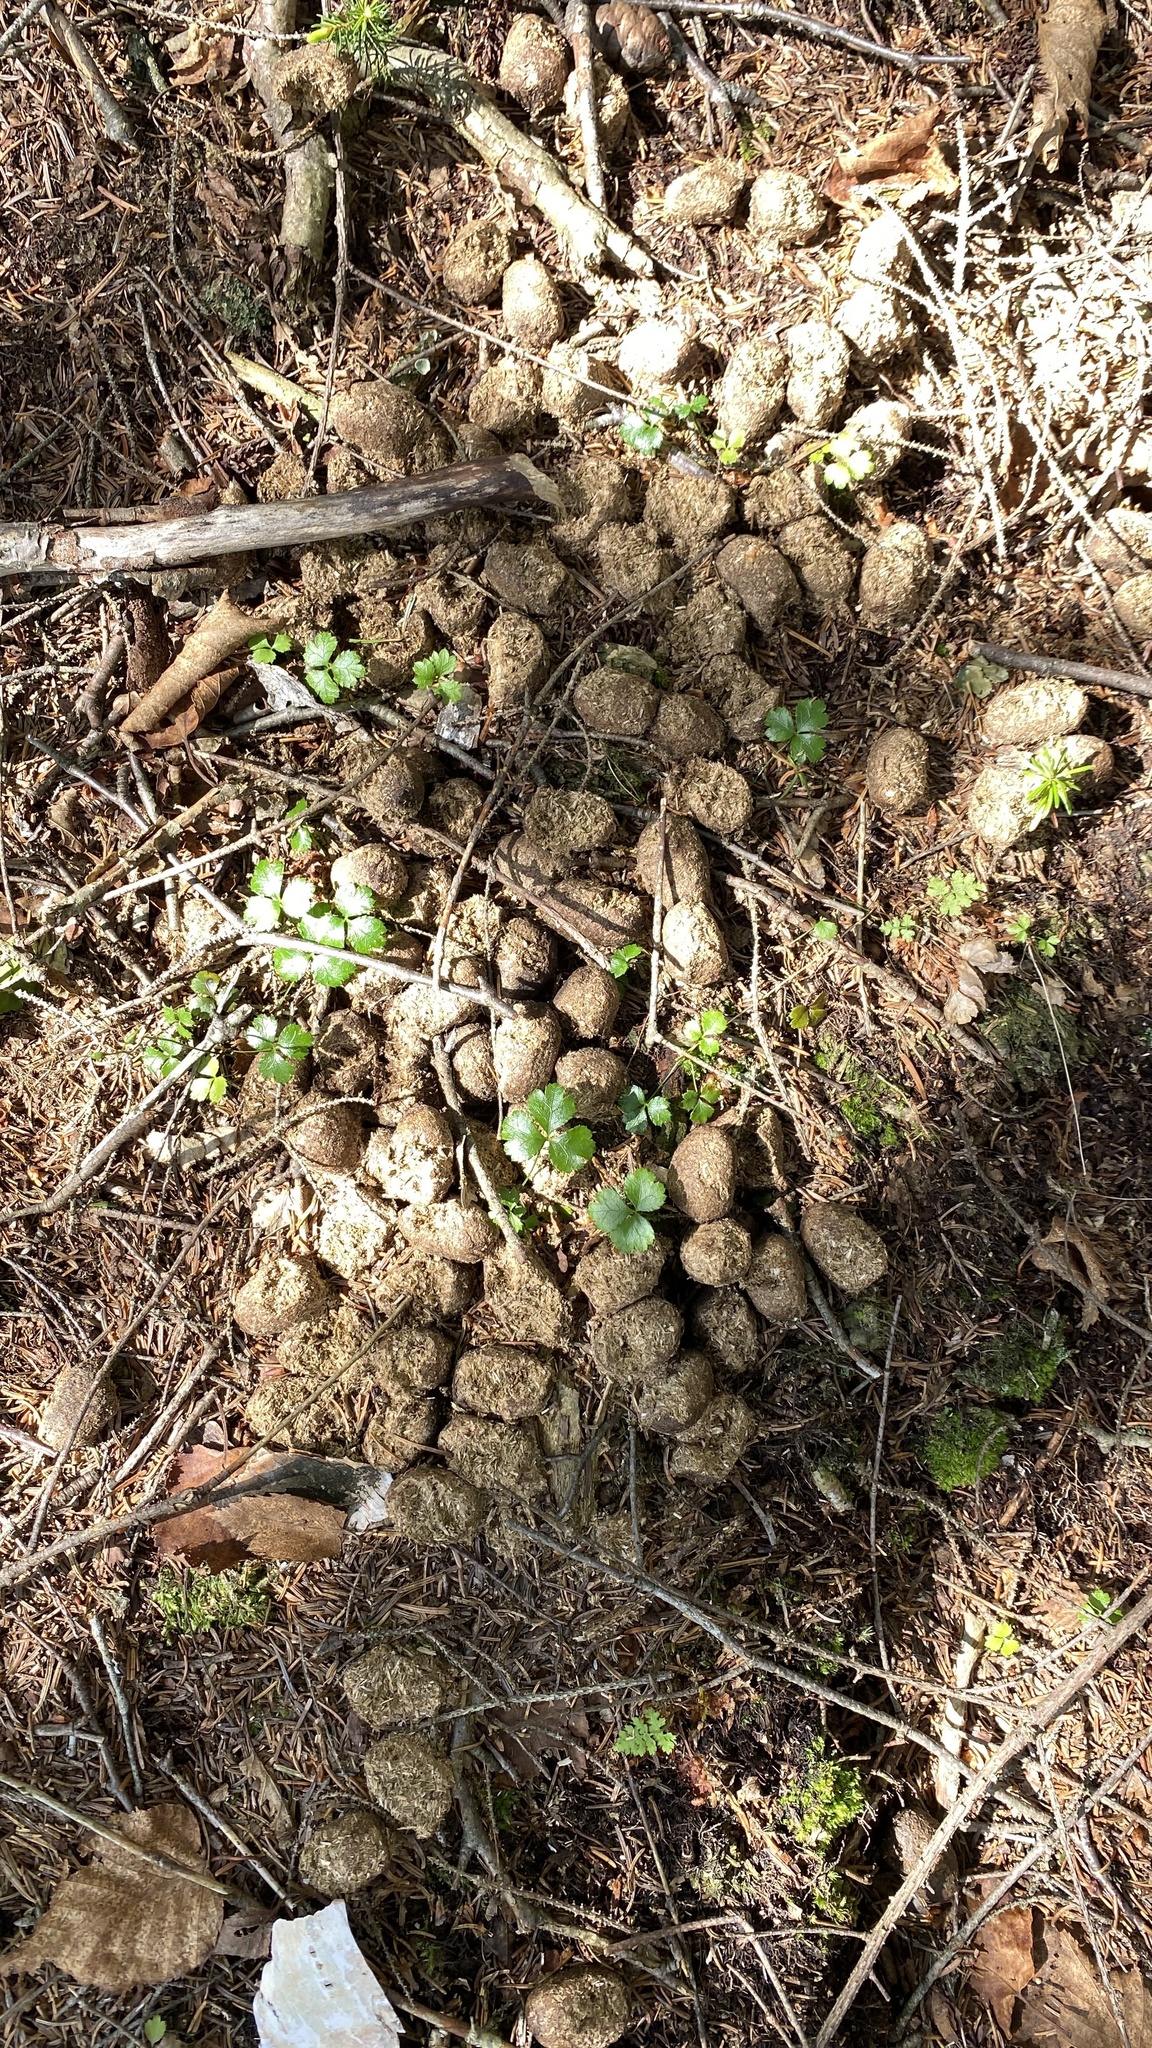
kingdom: Animalia
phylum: Chordata
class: Mammalia
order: Artiodactyla
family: Cervidae
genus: Alces
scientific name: Alces alces
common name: Moose
